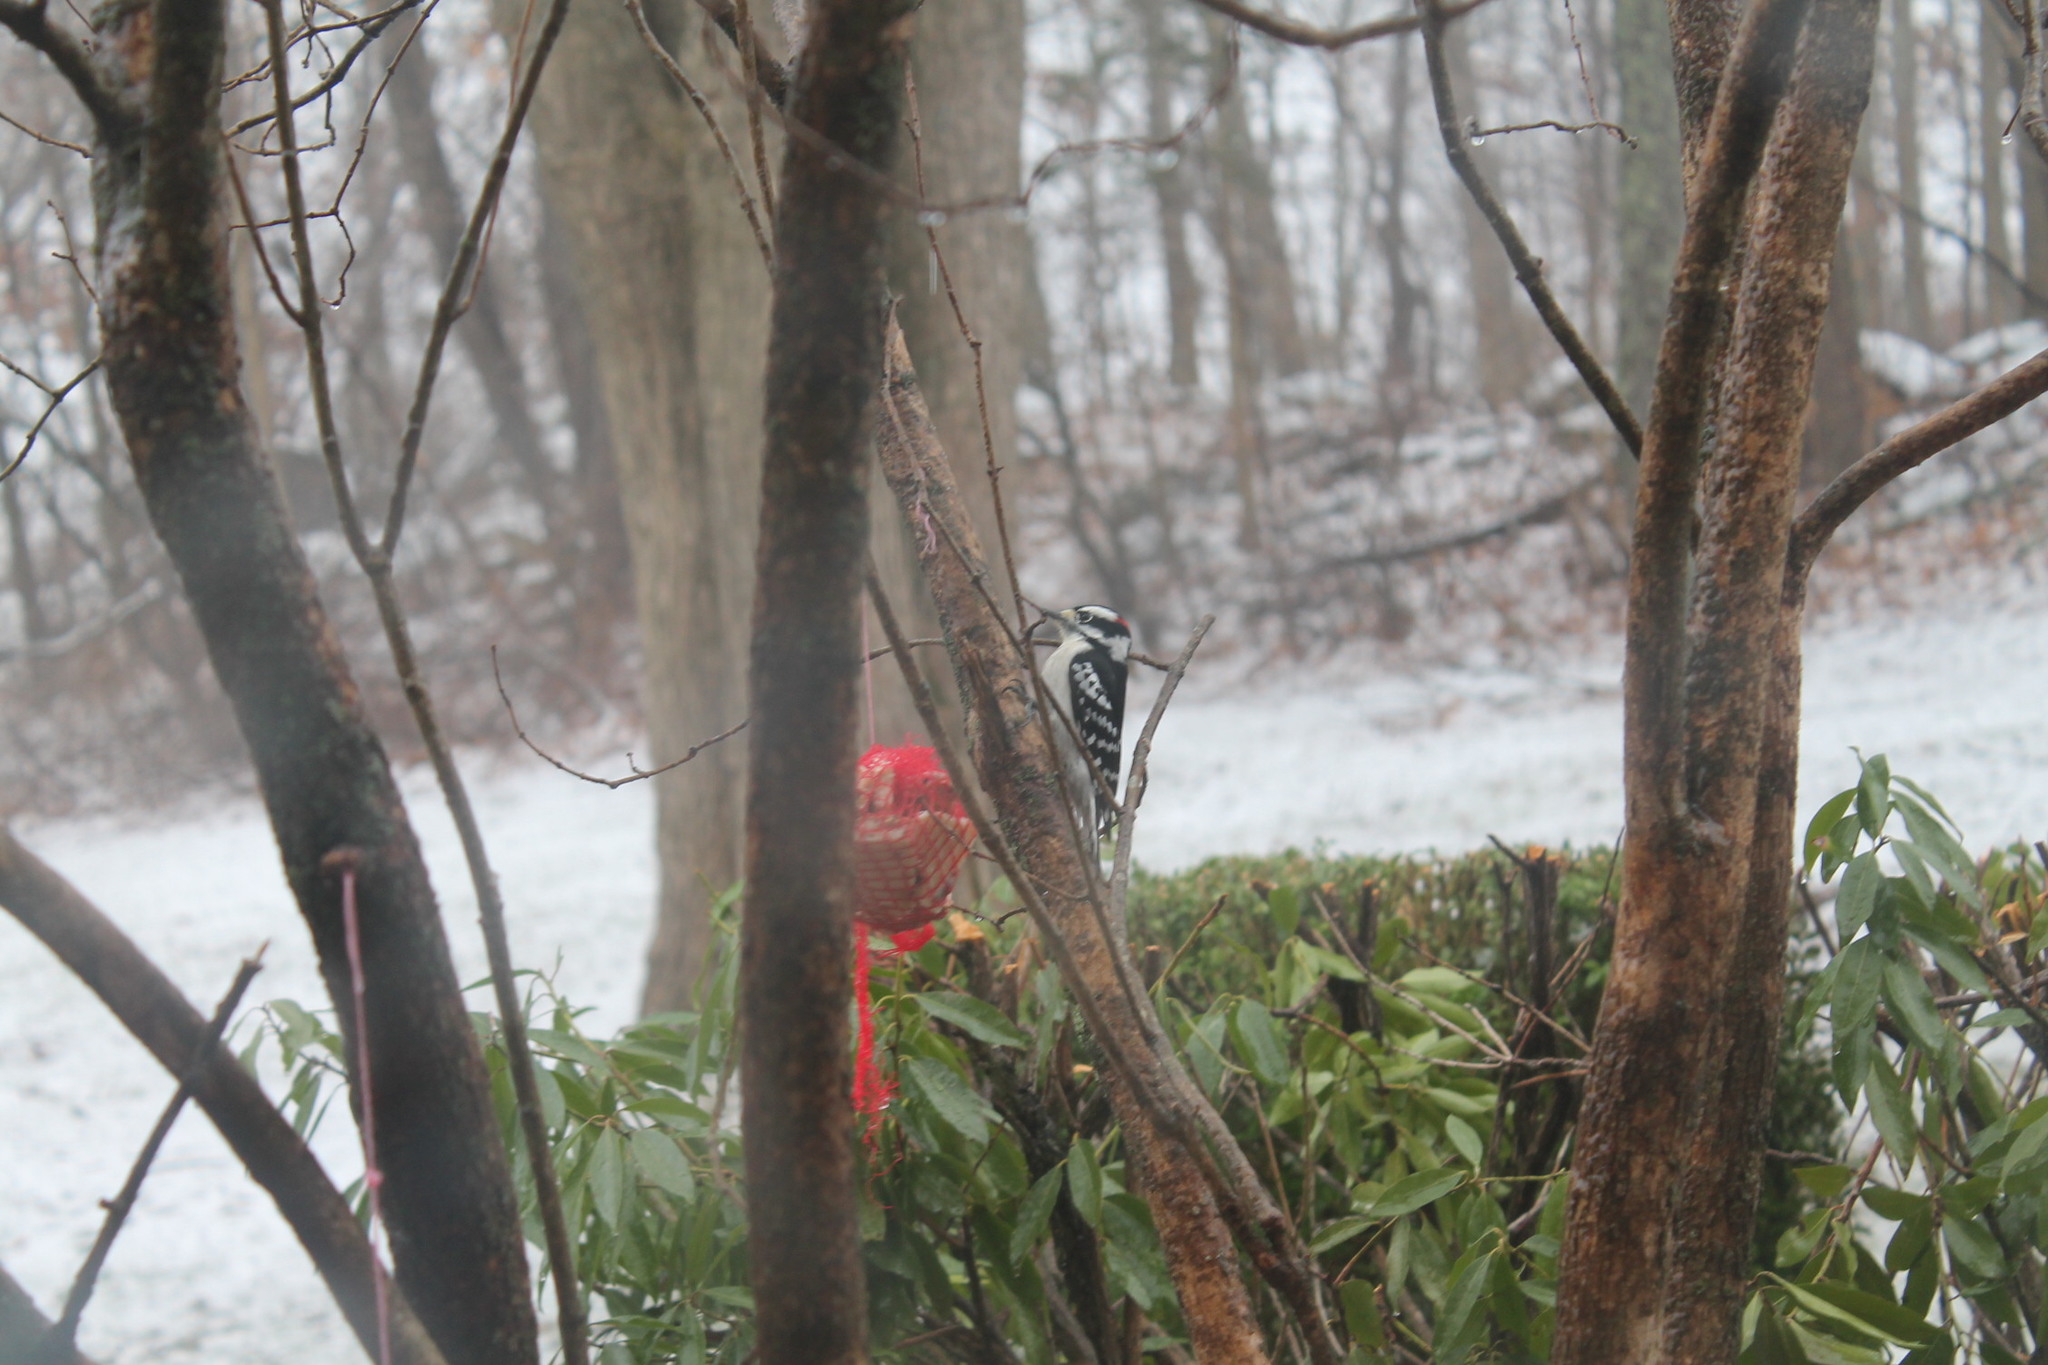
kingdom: Animalia
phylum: Chordata
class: Aves
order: Piciformes
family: Picidae
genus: Dryobates
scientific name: Dryobates pubescens
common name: Downy woodpecker
